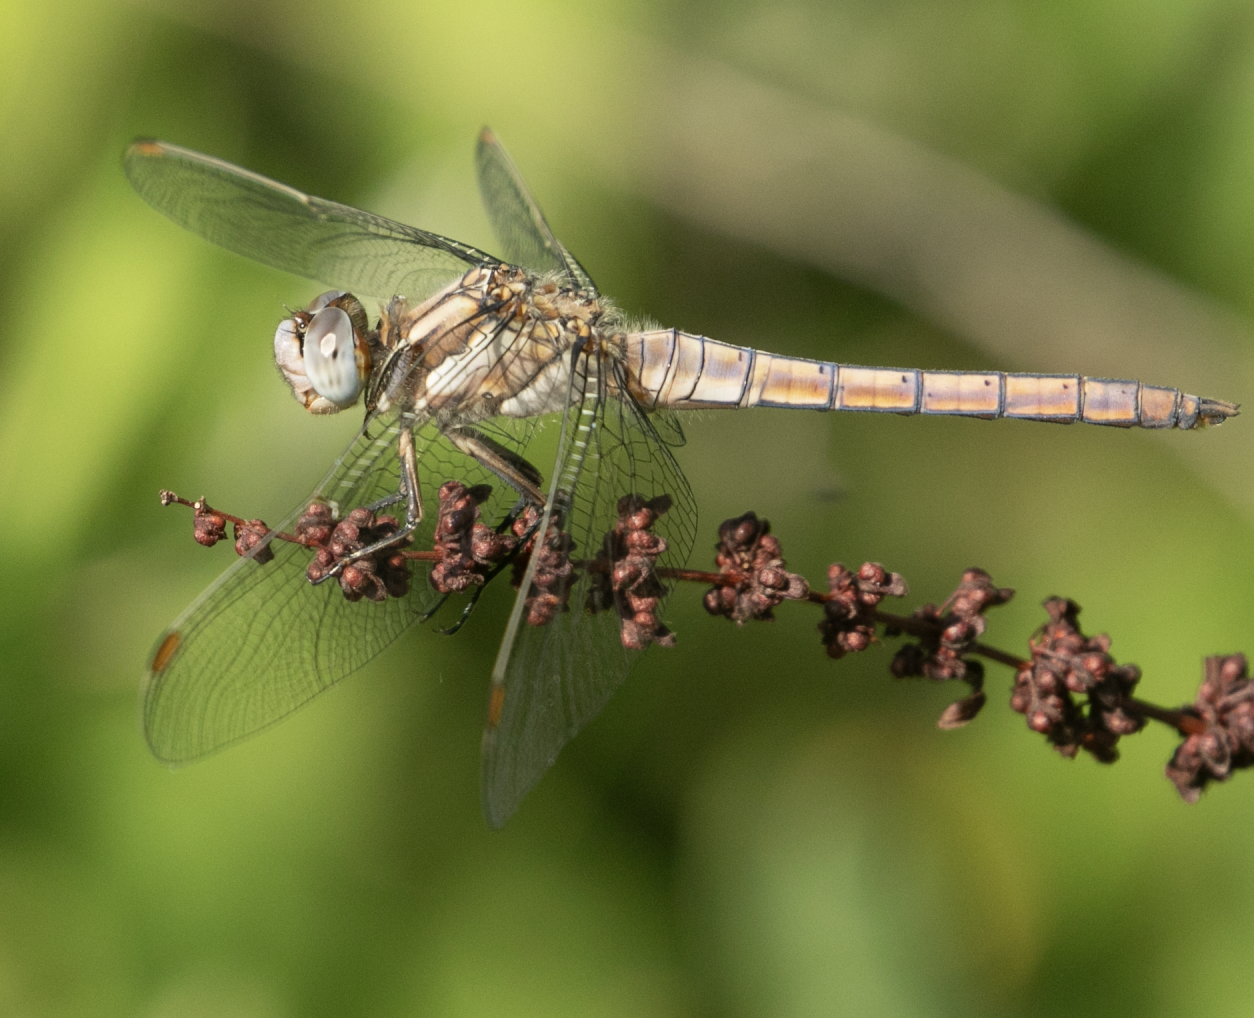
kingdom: Animalia
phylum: Arthropoda
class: Insecta
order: Odonata
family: Libellulidae
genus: Orthetrum
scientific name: Orthetrum brunneum
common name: Southern skimmer
